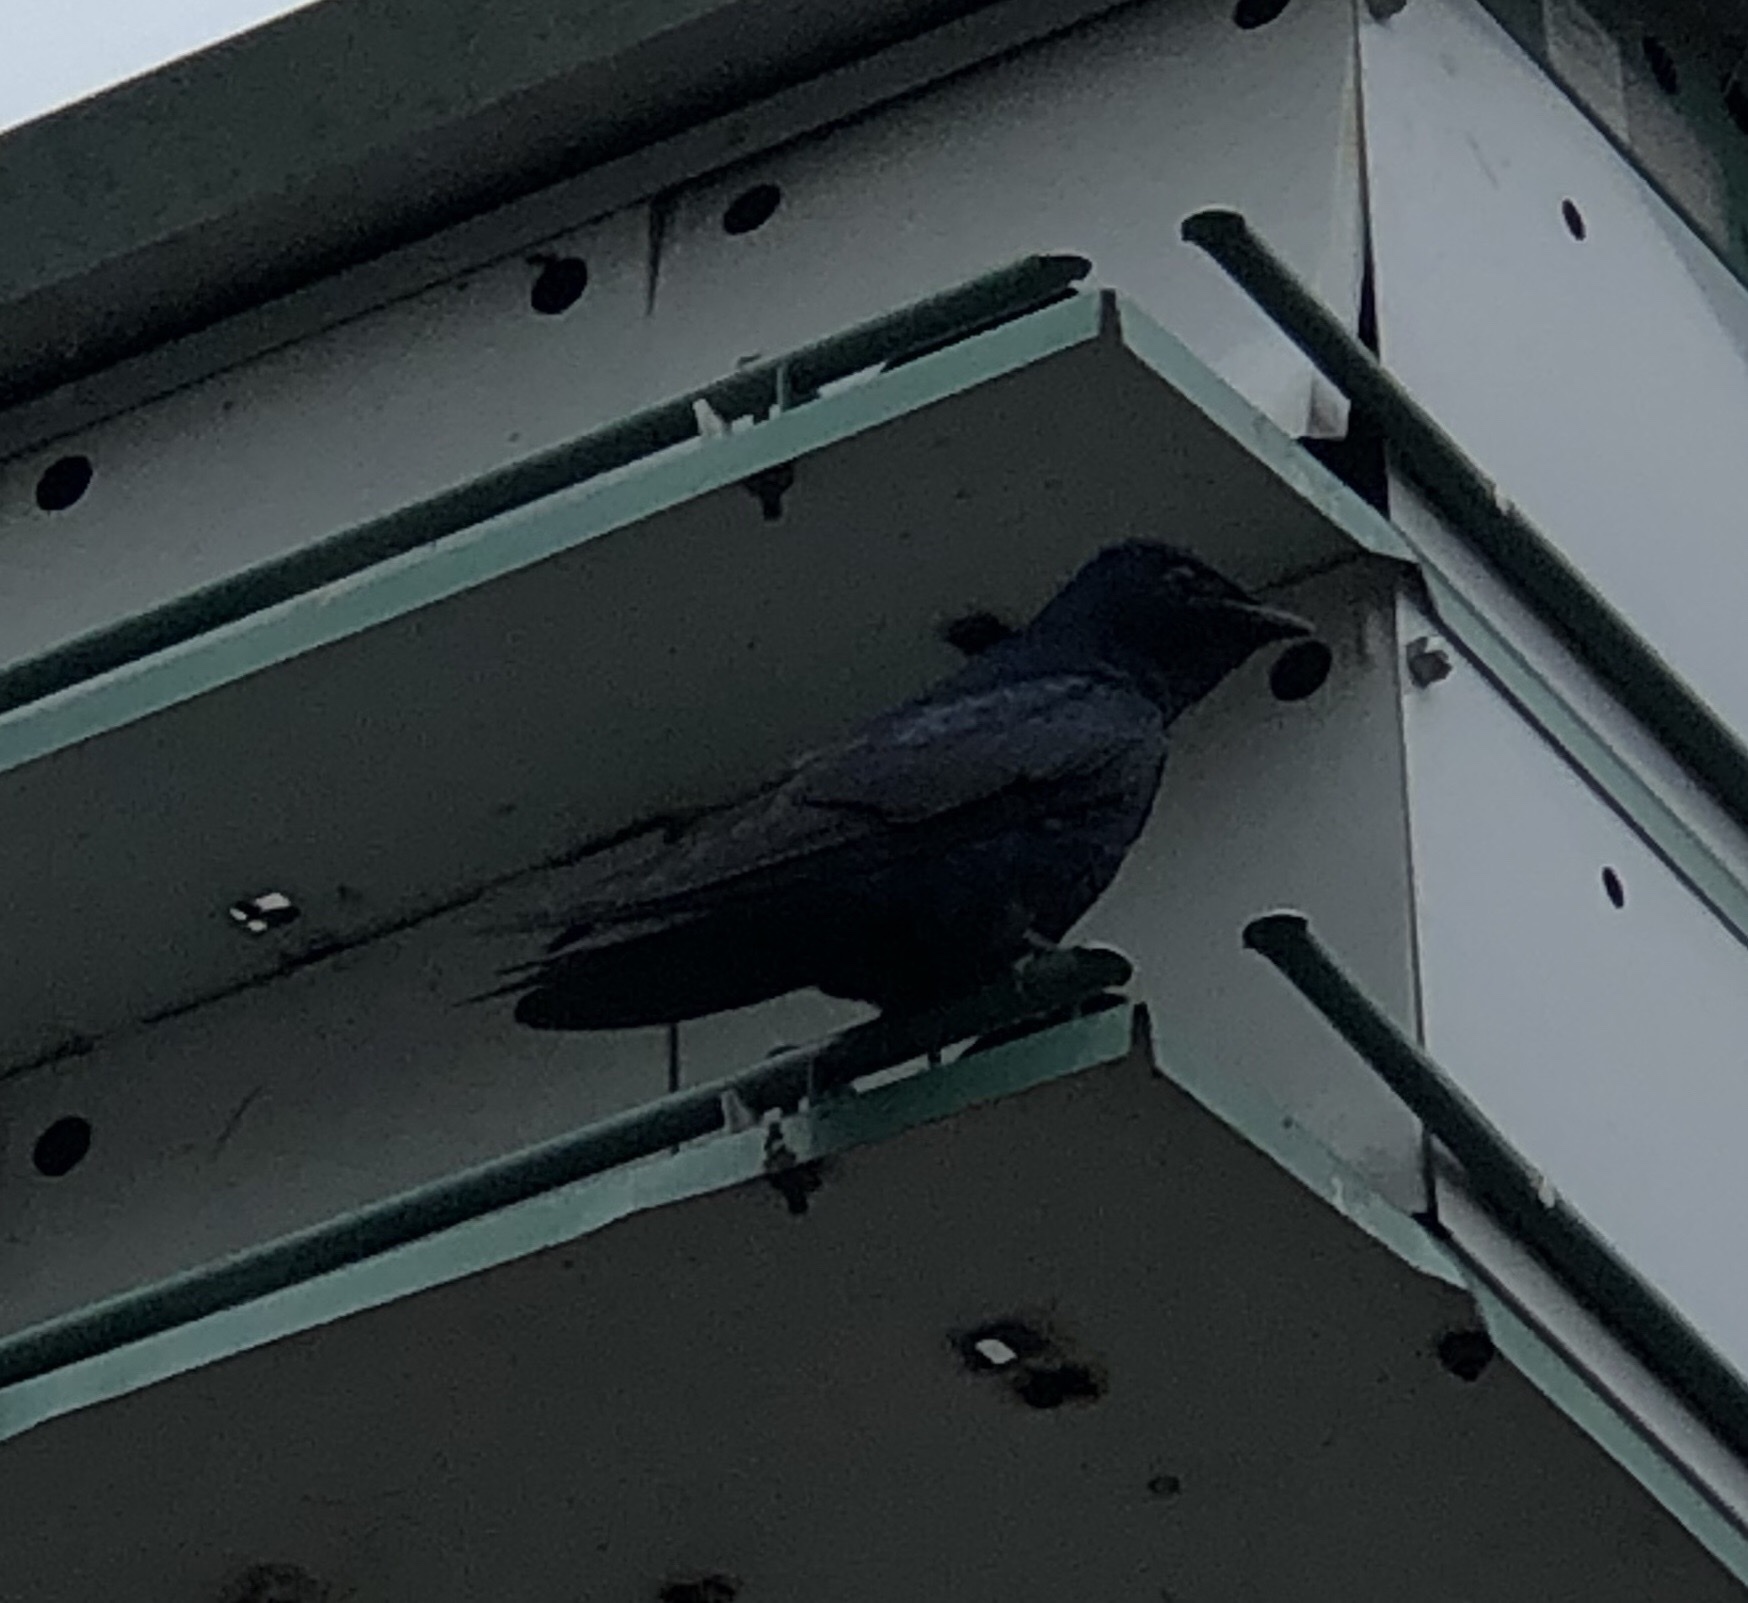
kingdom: Animalia
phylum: Chordata
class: Aves
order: Passeriformes
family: Hirundinidae
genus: Progne
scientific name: Progne subis
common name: Purple martin
